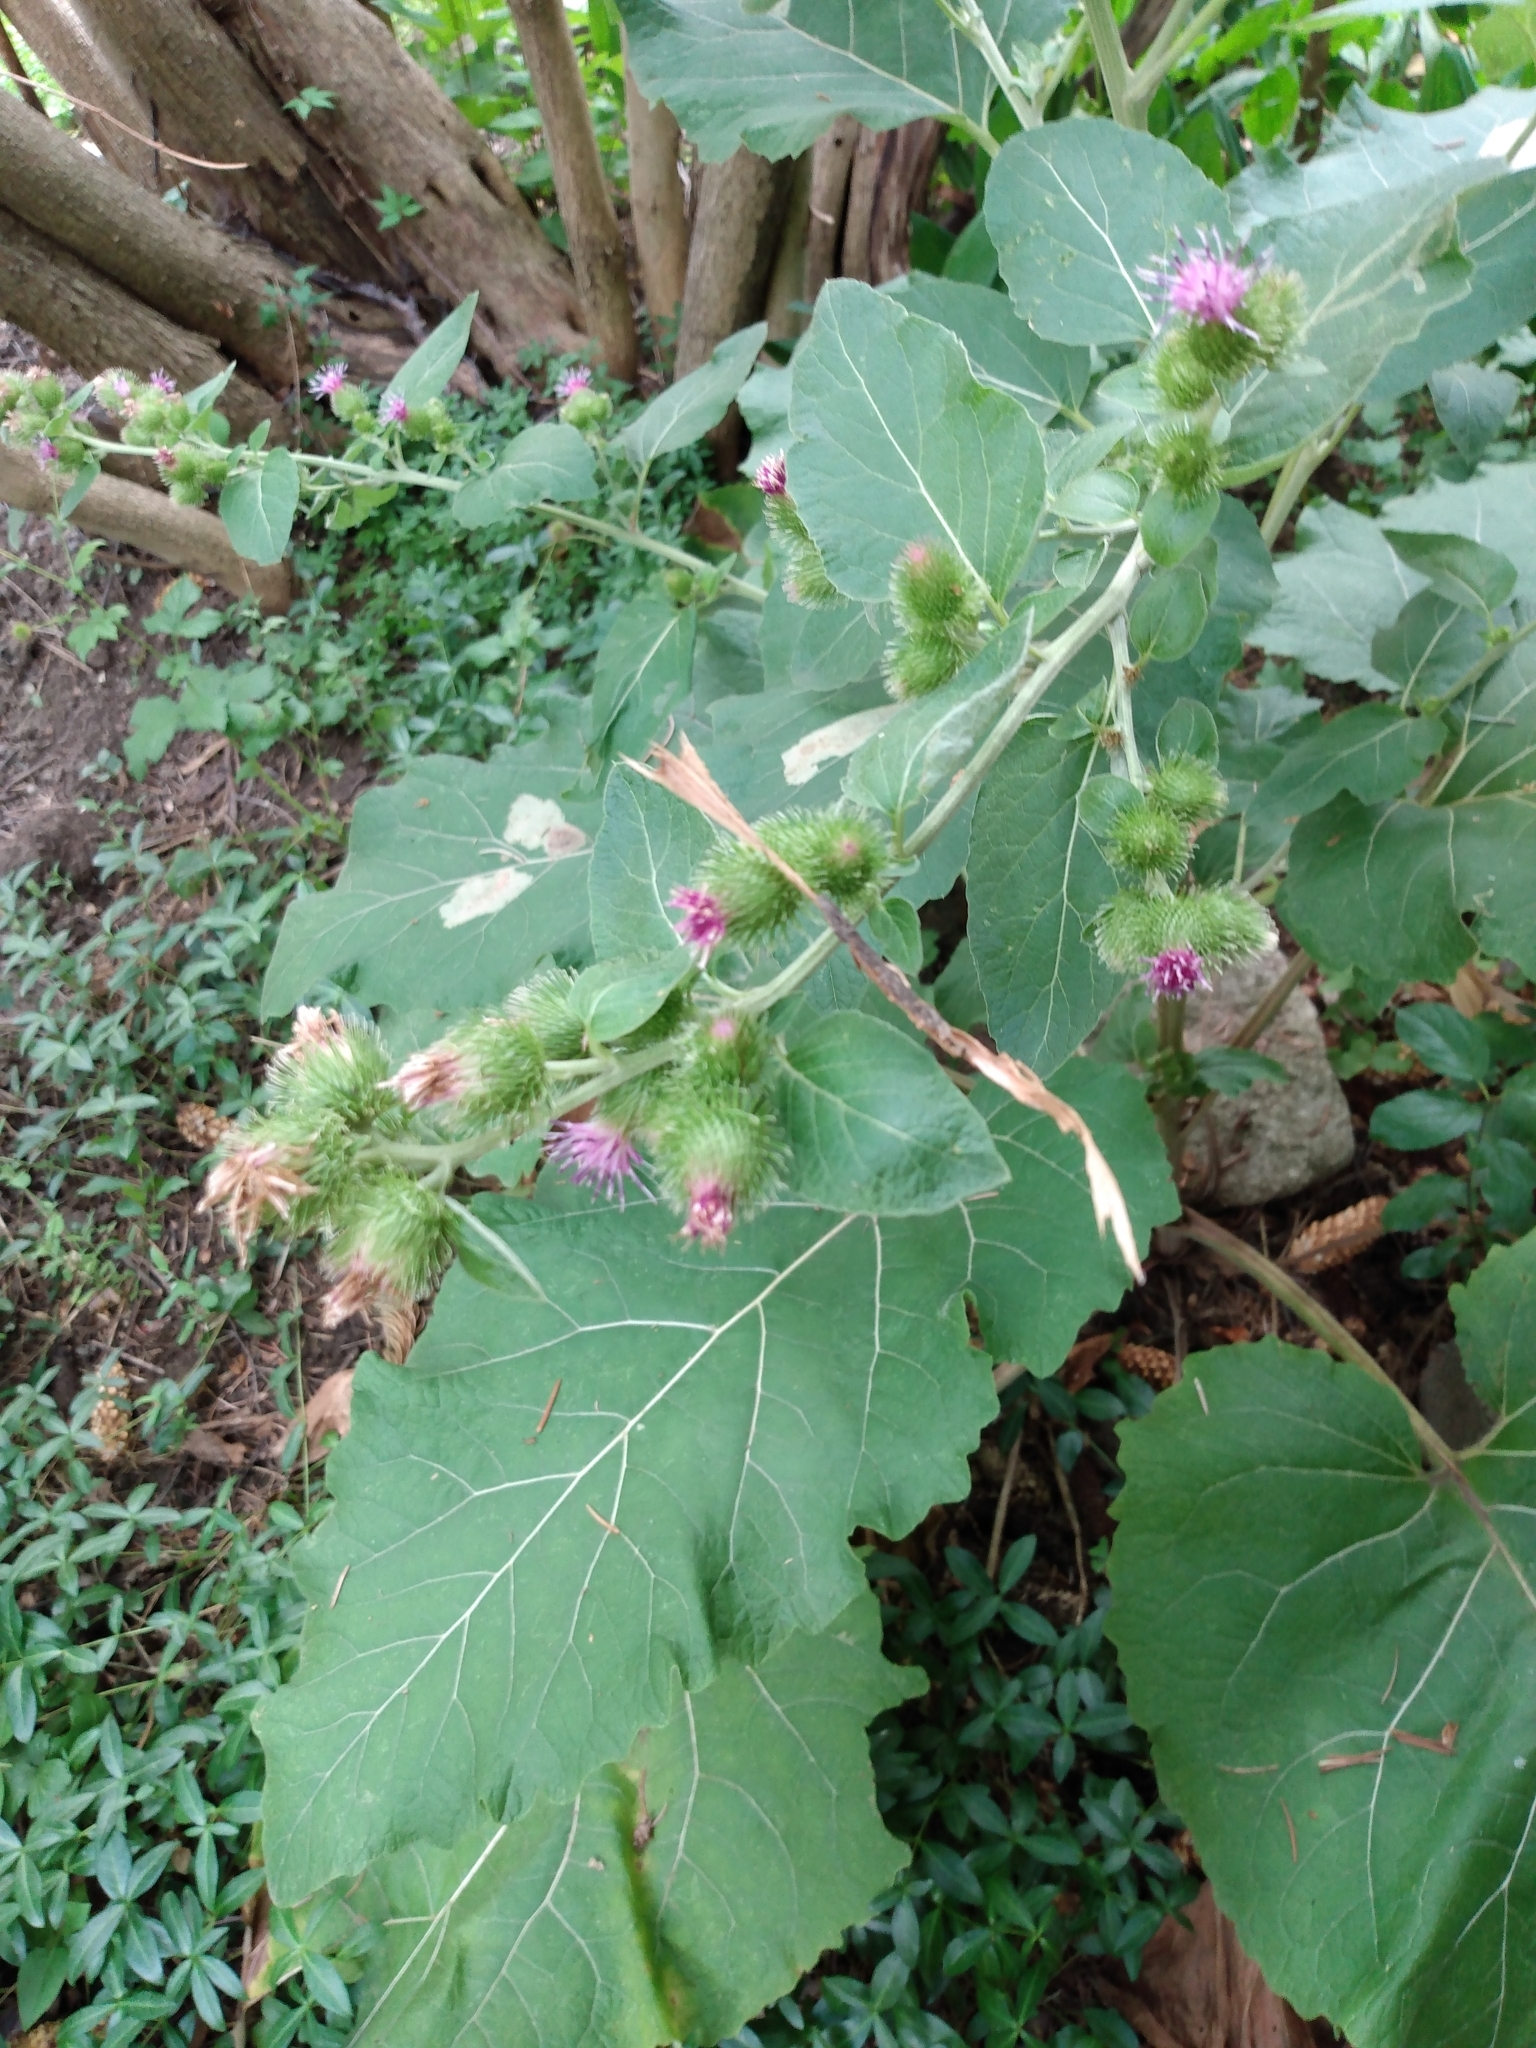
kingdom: Plantae
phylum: Tracheophyta
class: Magnoliopsida
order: Asterales
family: Asteraceae
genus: Arctium
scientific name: Arctium lappa
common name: Greater burdock
